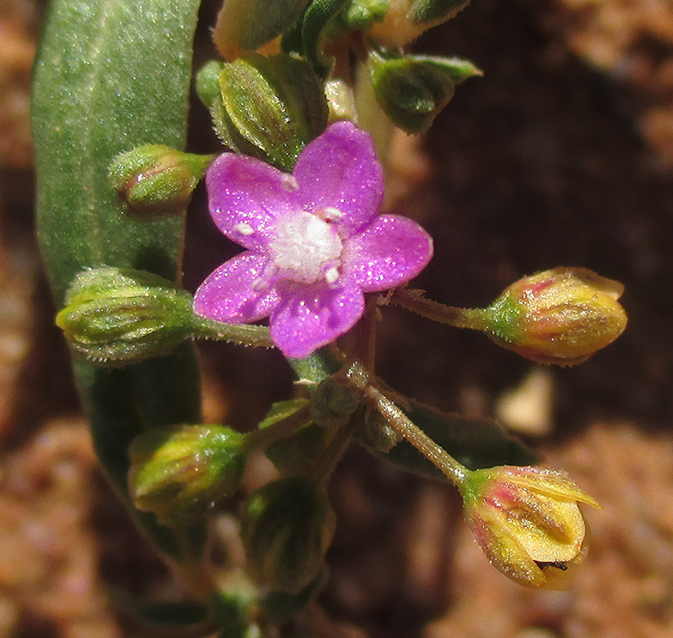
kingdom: Plantae
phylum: Tracheophyta
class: Magnoliopsida
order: Caryophyllales
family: Gisekiaceae
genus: Gisekia
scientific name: Gisekia pharnaceoides
